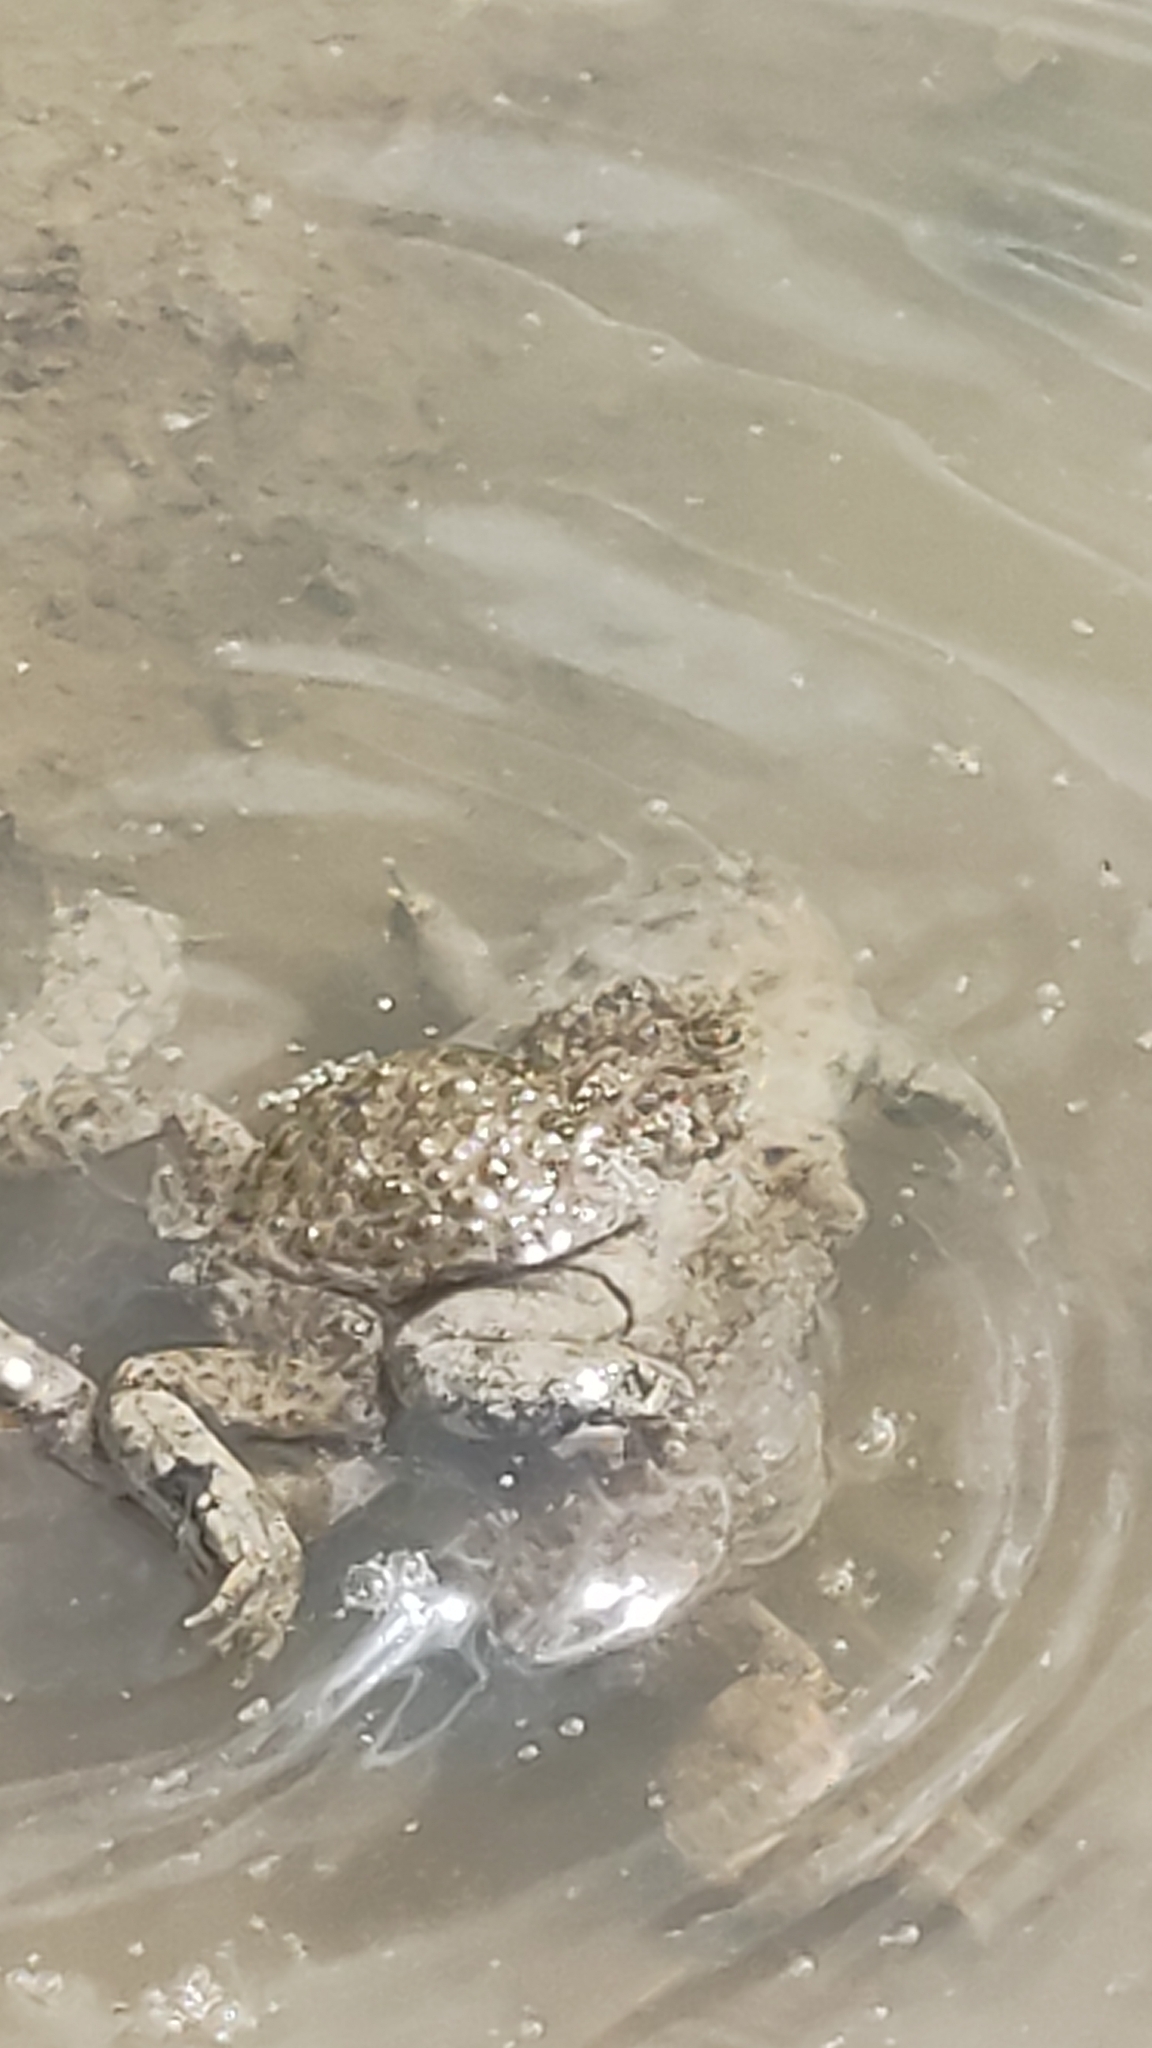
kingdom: Animalia
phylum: Chordata
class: Amphibia
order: Anura
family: Bombinatoridae
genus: Bombina
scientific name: Bombina variegata
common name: Yellow-bellied toad
